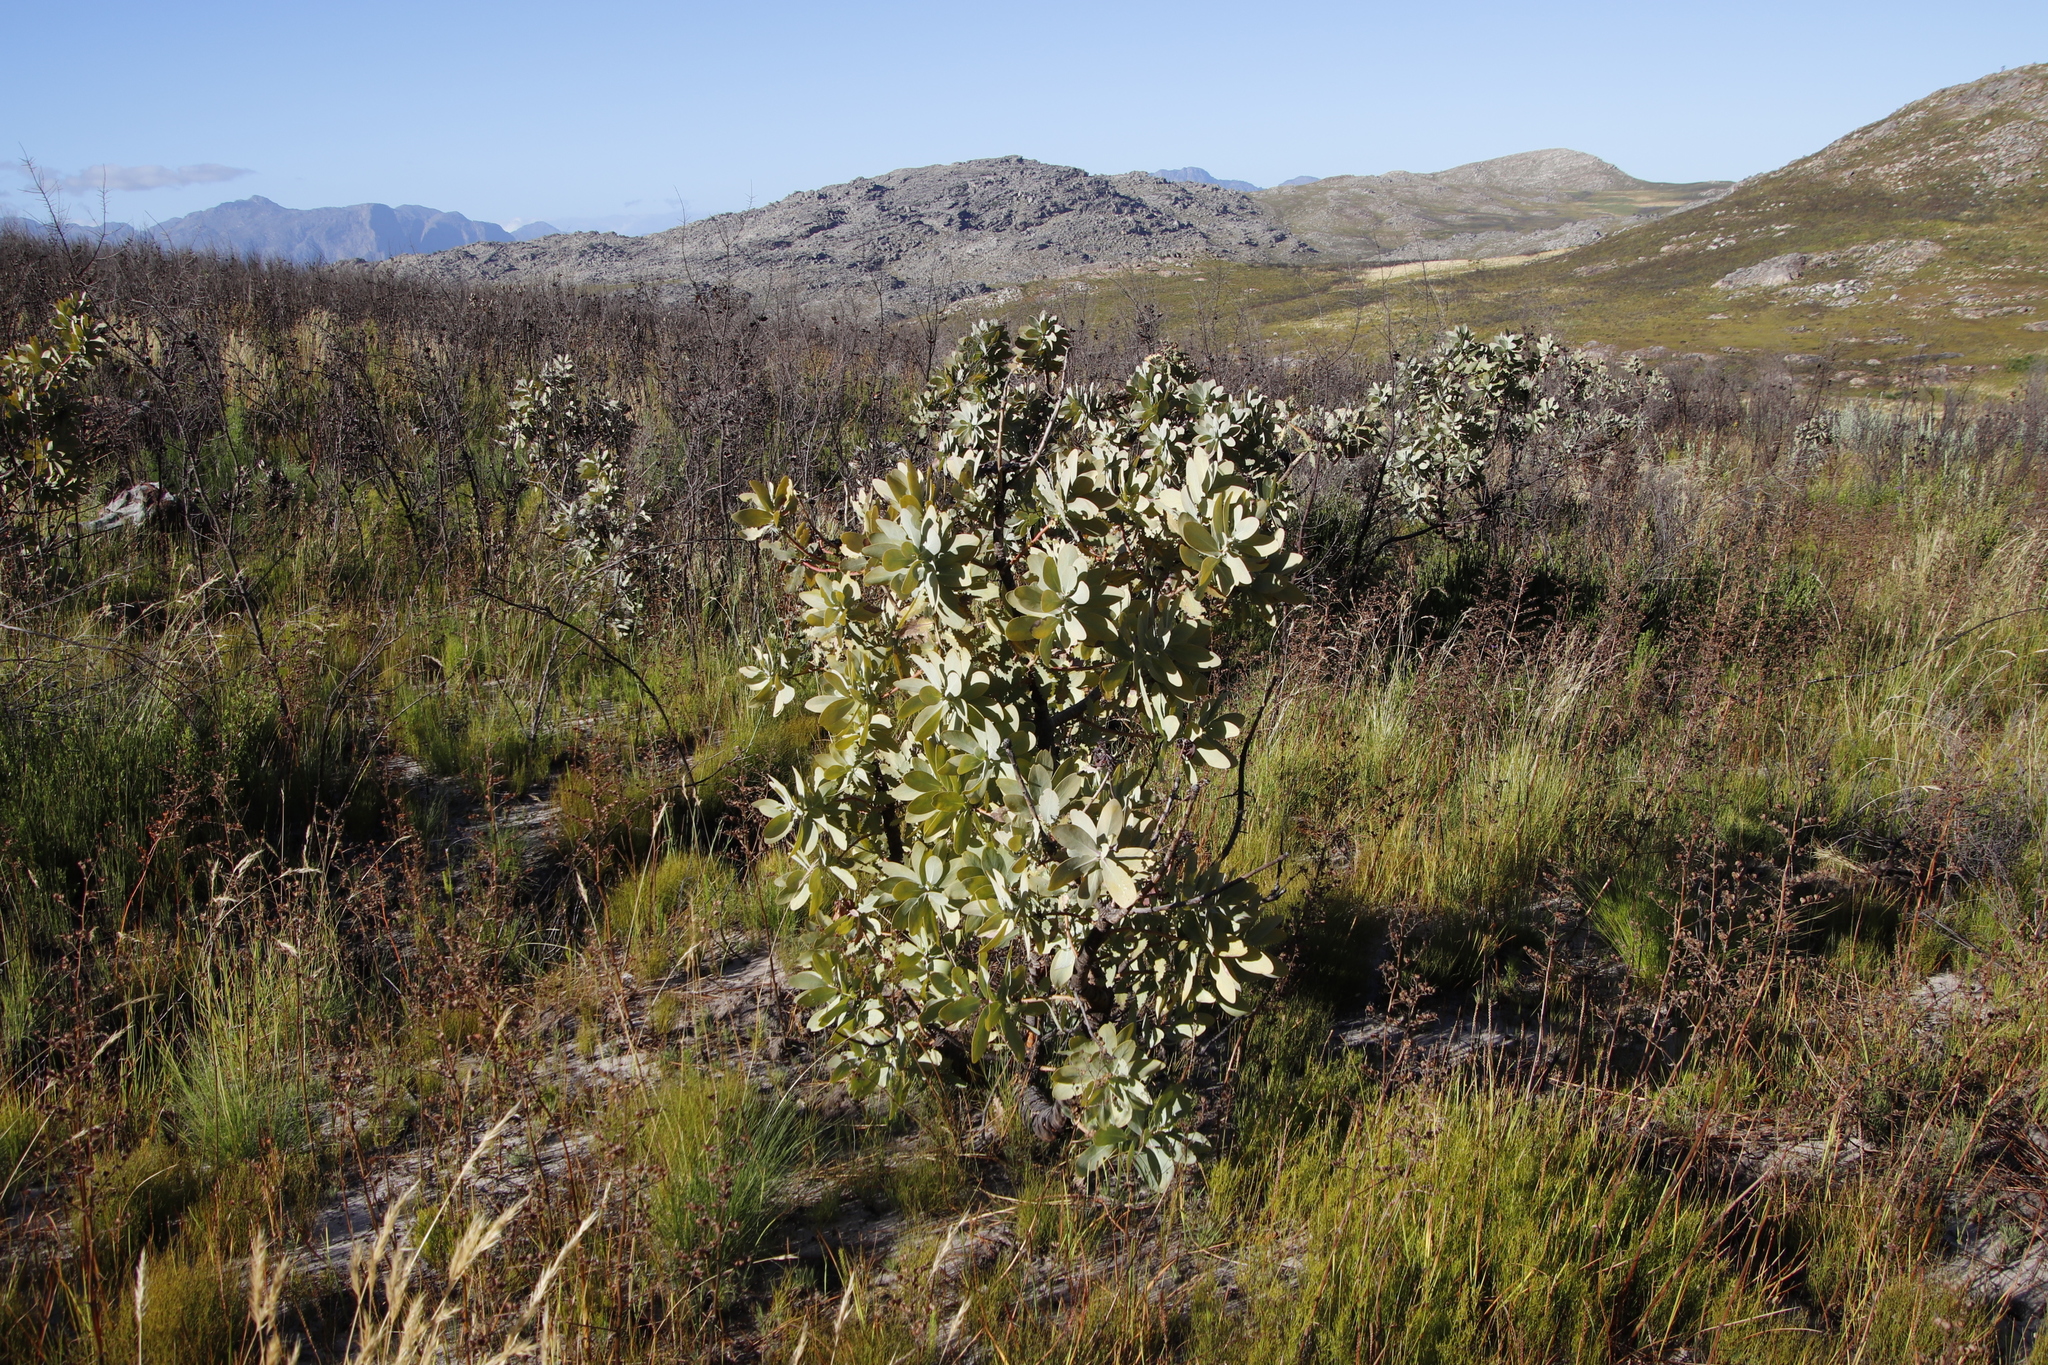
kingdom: Plantae
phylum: Tracheophyta
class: Magnoliopsida
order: Proteales
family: Proteaceae
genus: Protea
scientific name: Protea nitida
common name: Tree protea
